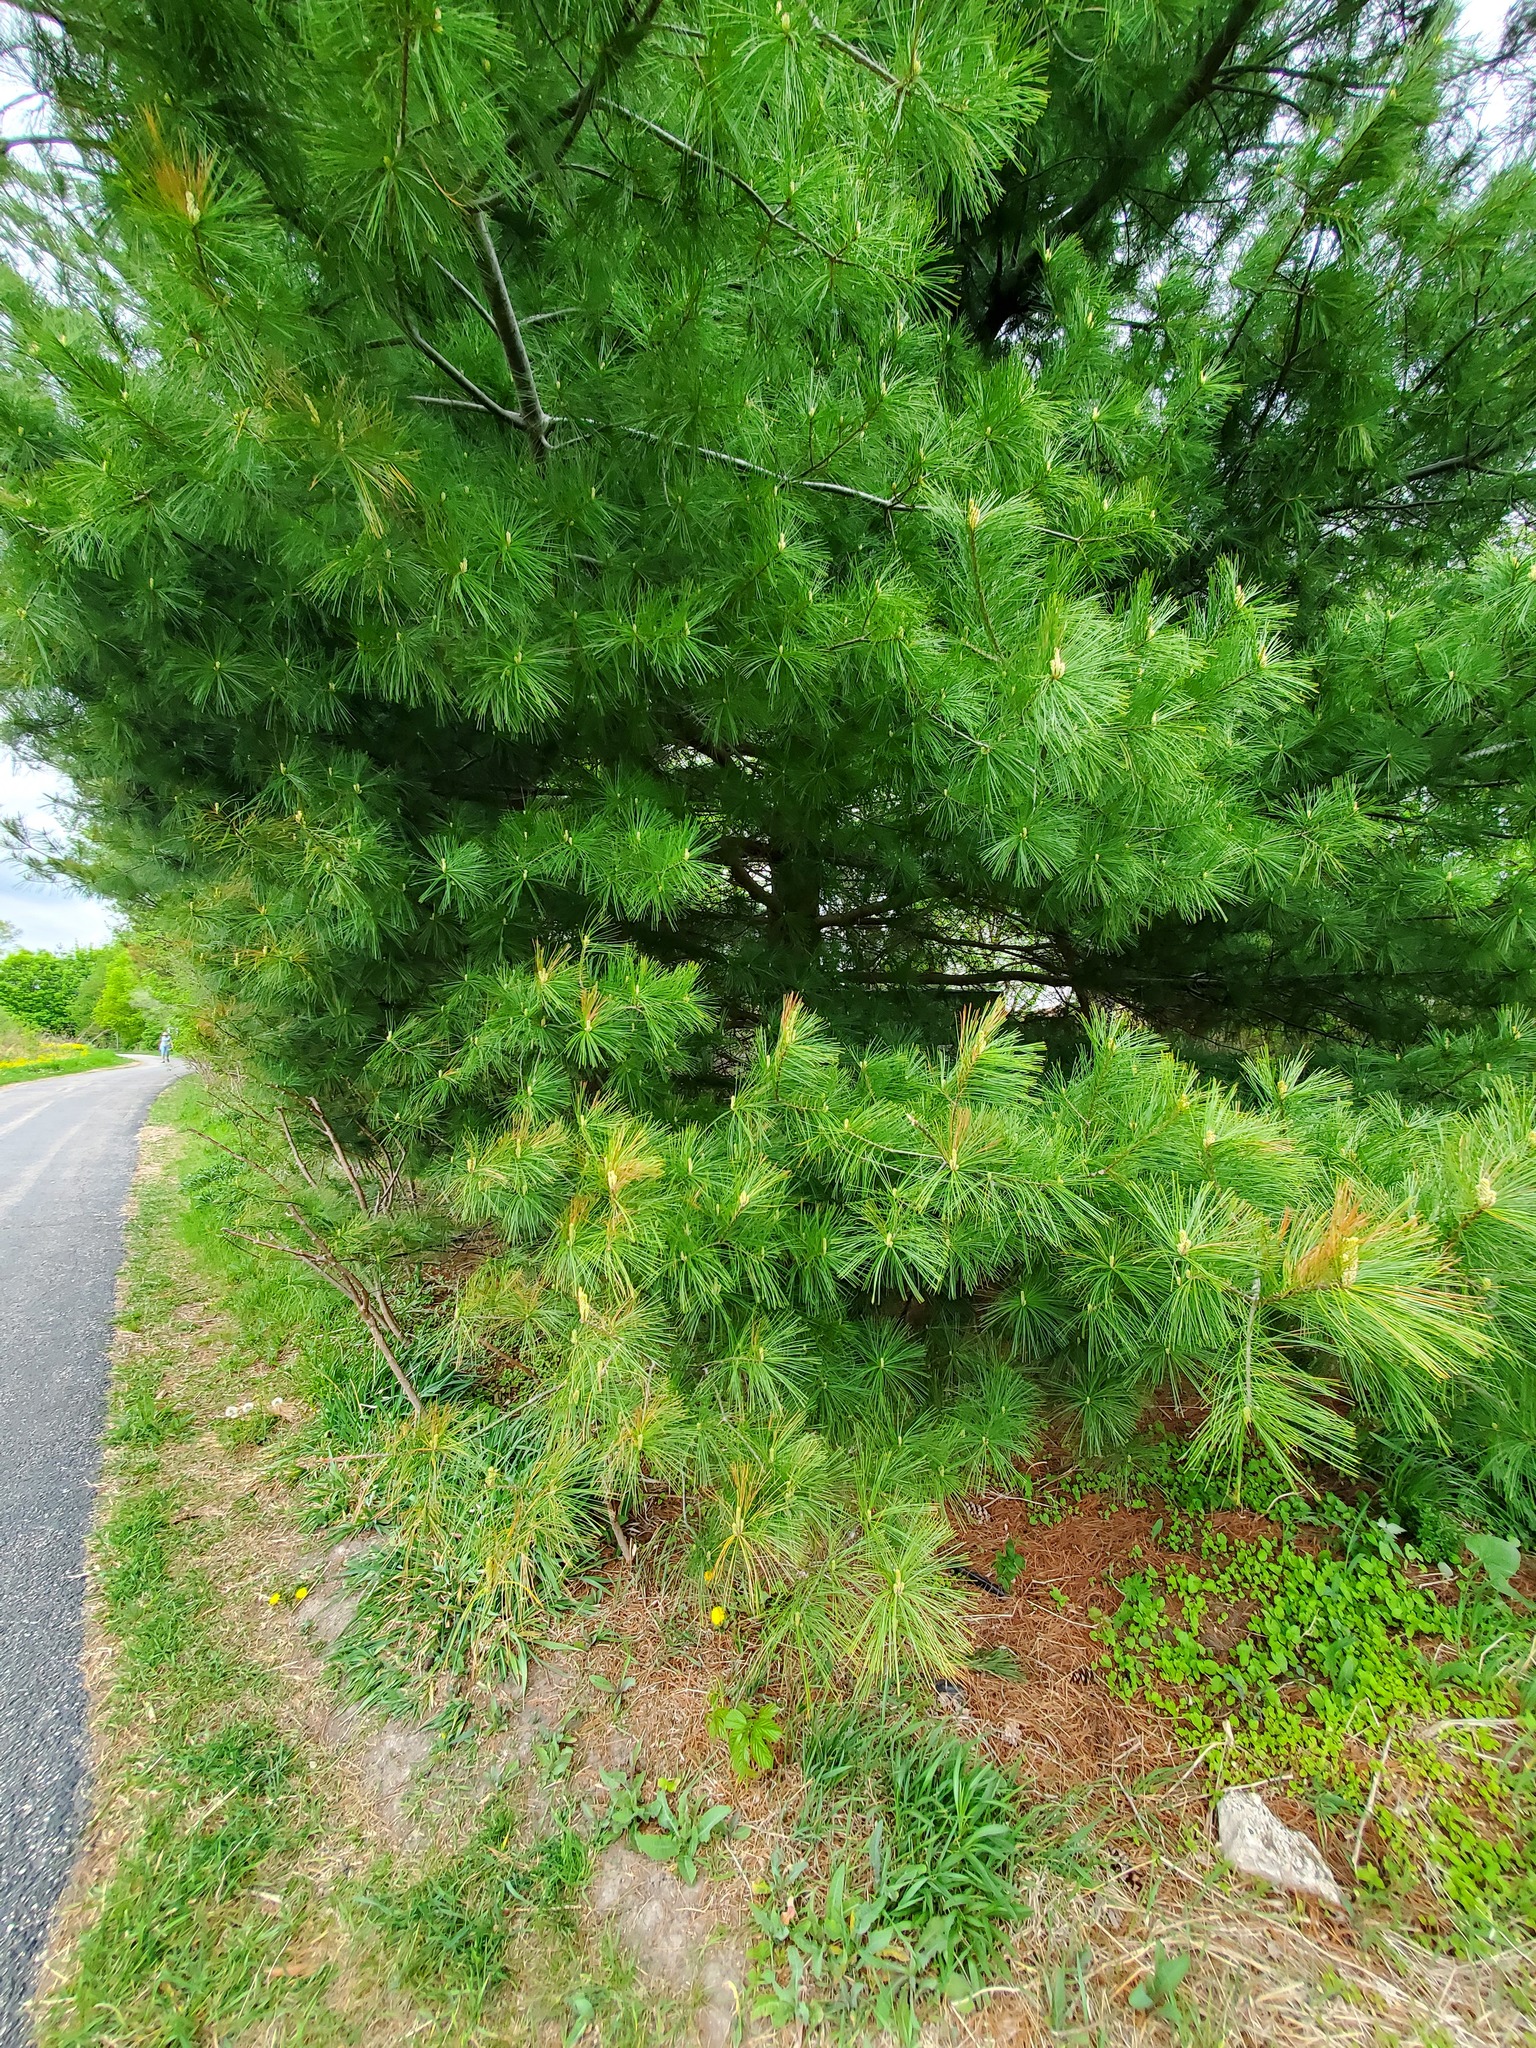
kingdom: Plantae
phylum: Tracheophyta
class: Pinopsida
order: Pinales
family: Pinaceae
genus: Pinus
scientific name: Pinus strobus
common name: Weymouth pine
